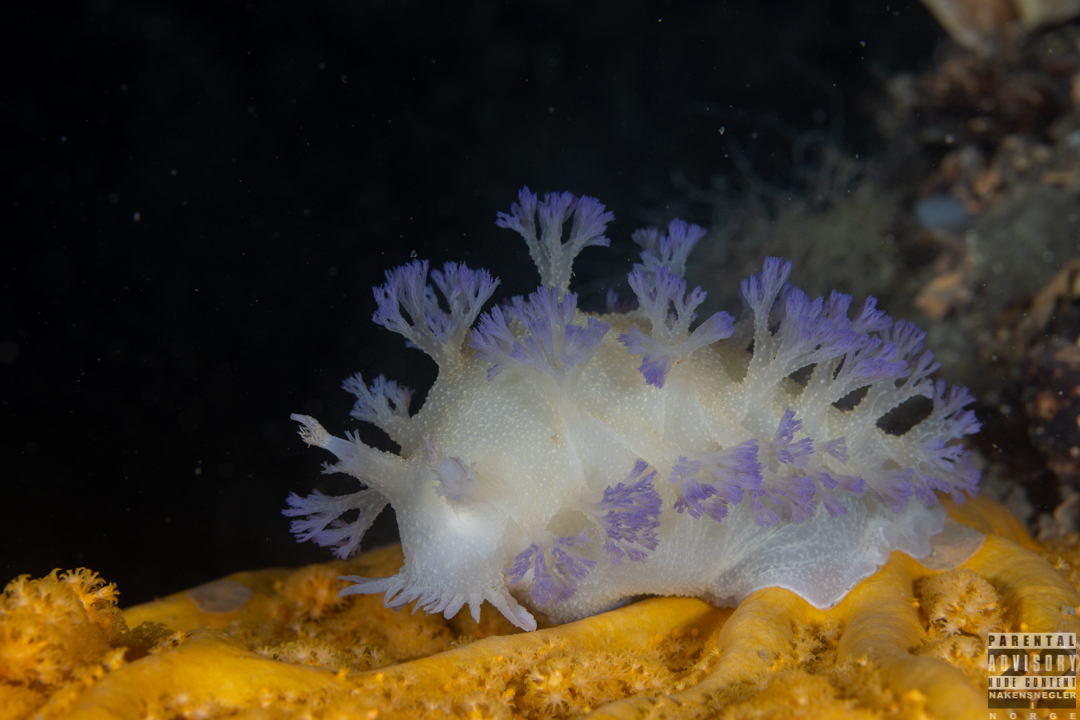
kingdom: Animalia
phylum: Mollusca
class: Gastropoda
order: Nudibranchia
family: Tritoniidae
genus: Tritonia
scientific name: Tritonia griegi
